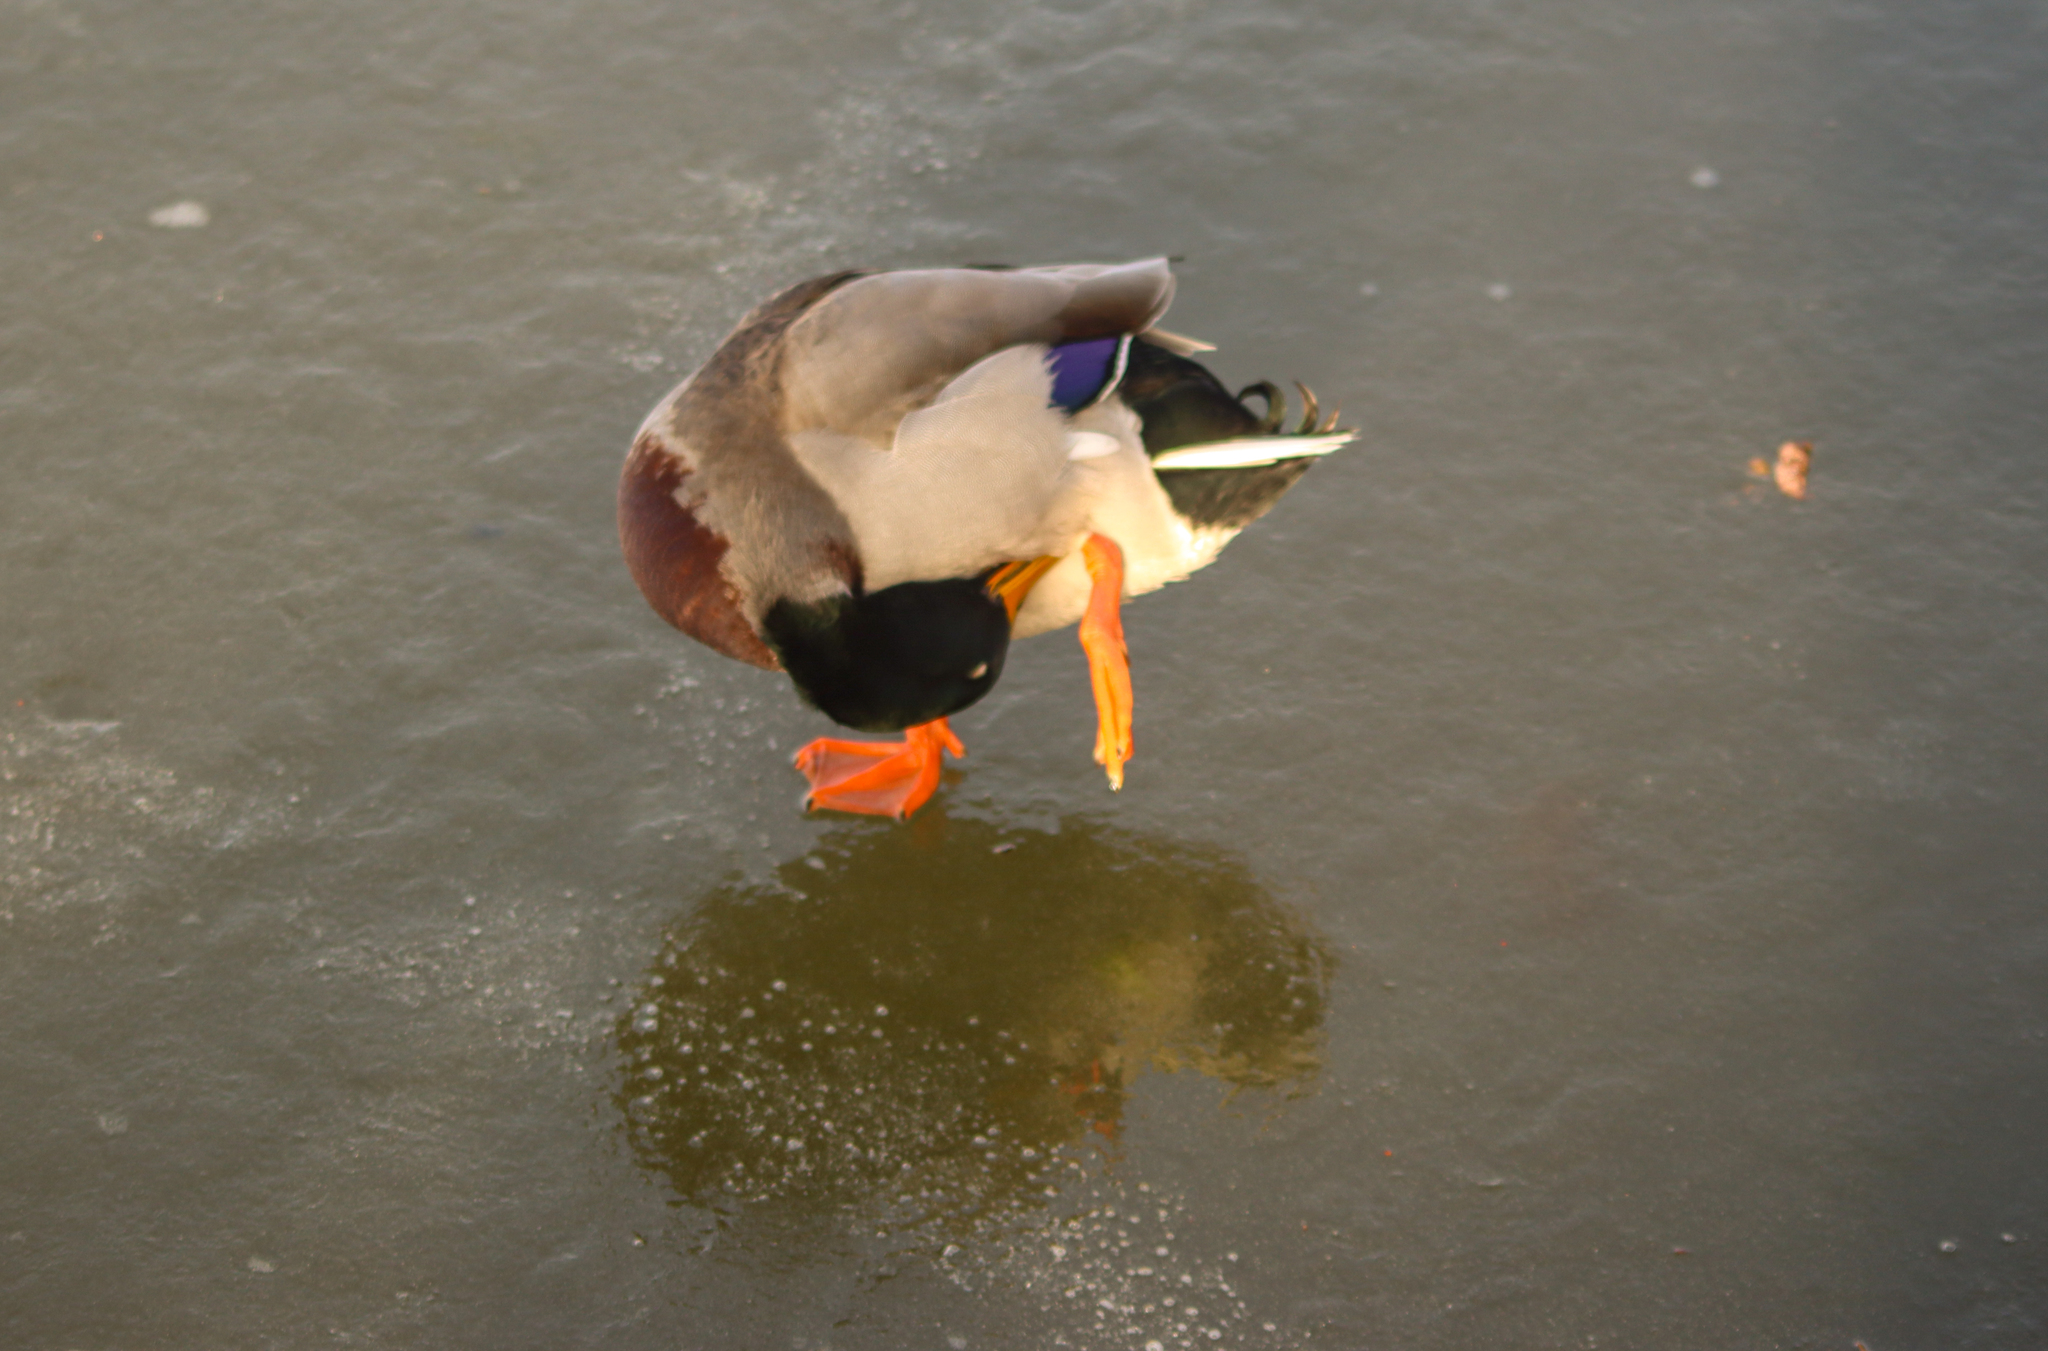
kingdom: Animalia
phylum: Chordata
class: Aves
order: Anseriformes
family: Anatidae
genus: Anas
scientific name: Anas platyrhynchos
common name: Mallard
